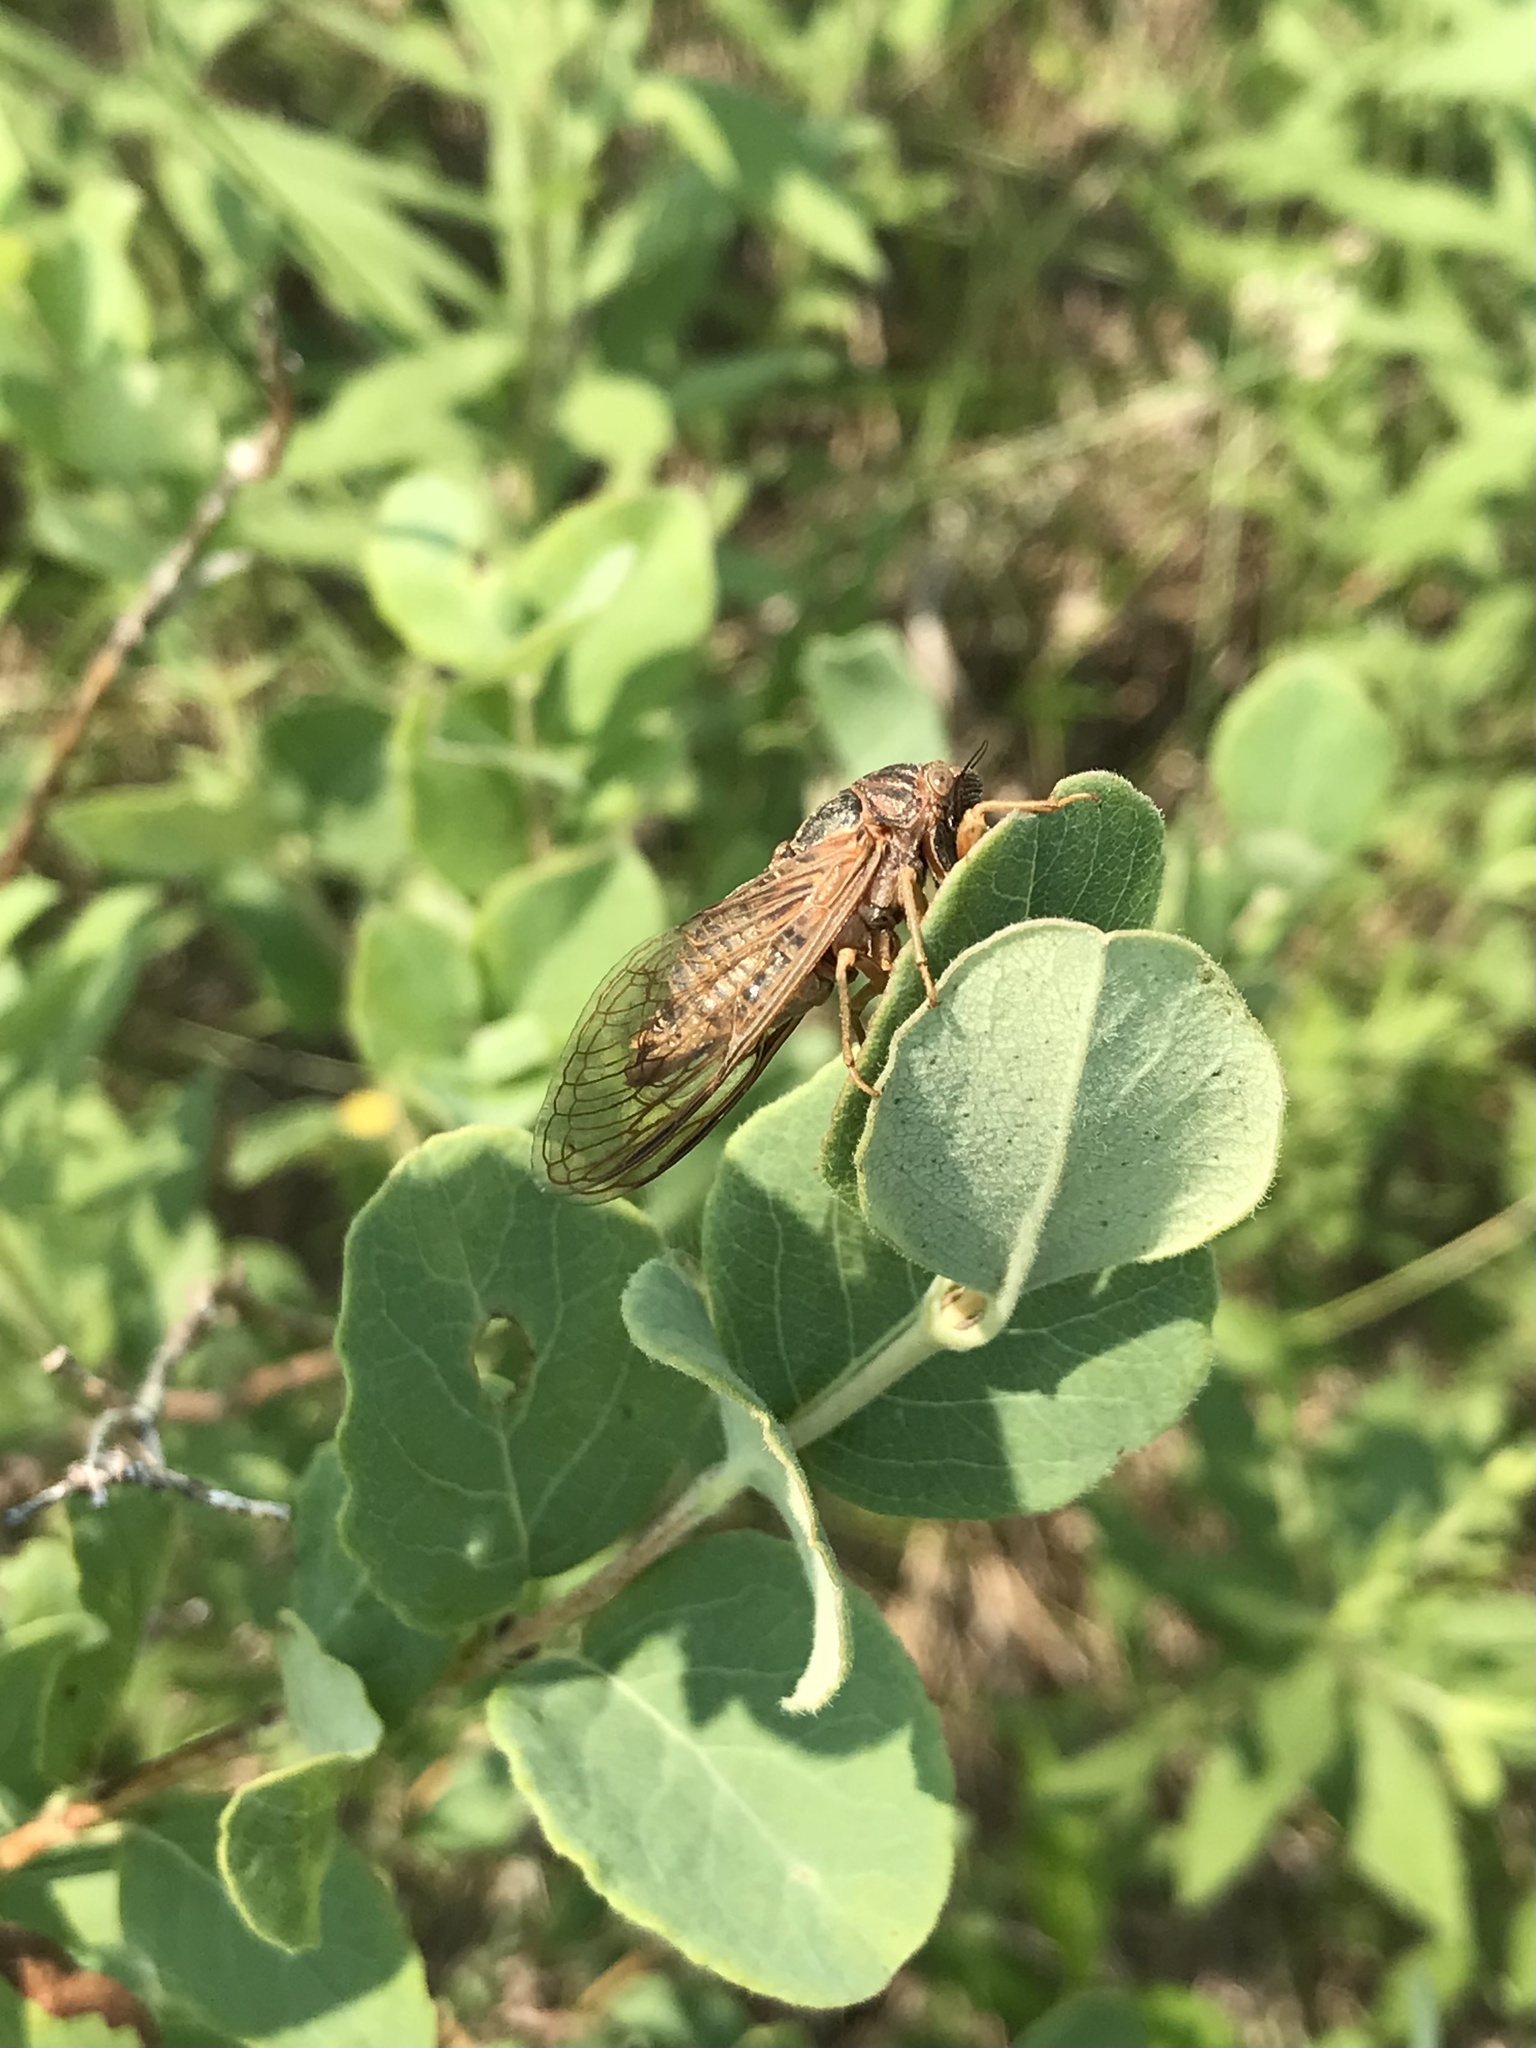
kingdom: Animalia
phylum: Arthropoda
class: Insecta
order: Hemiptera
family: Cicadidae
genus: Okanagana
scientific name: Okanagana balli
